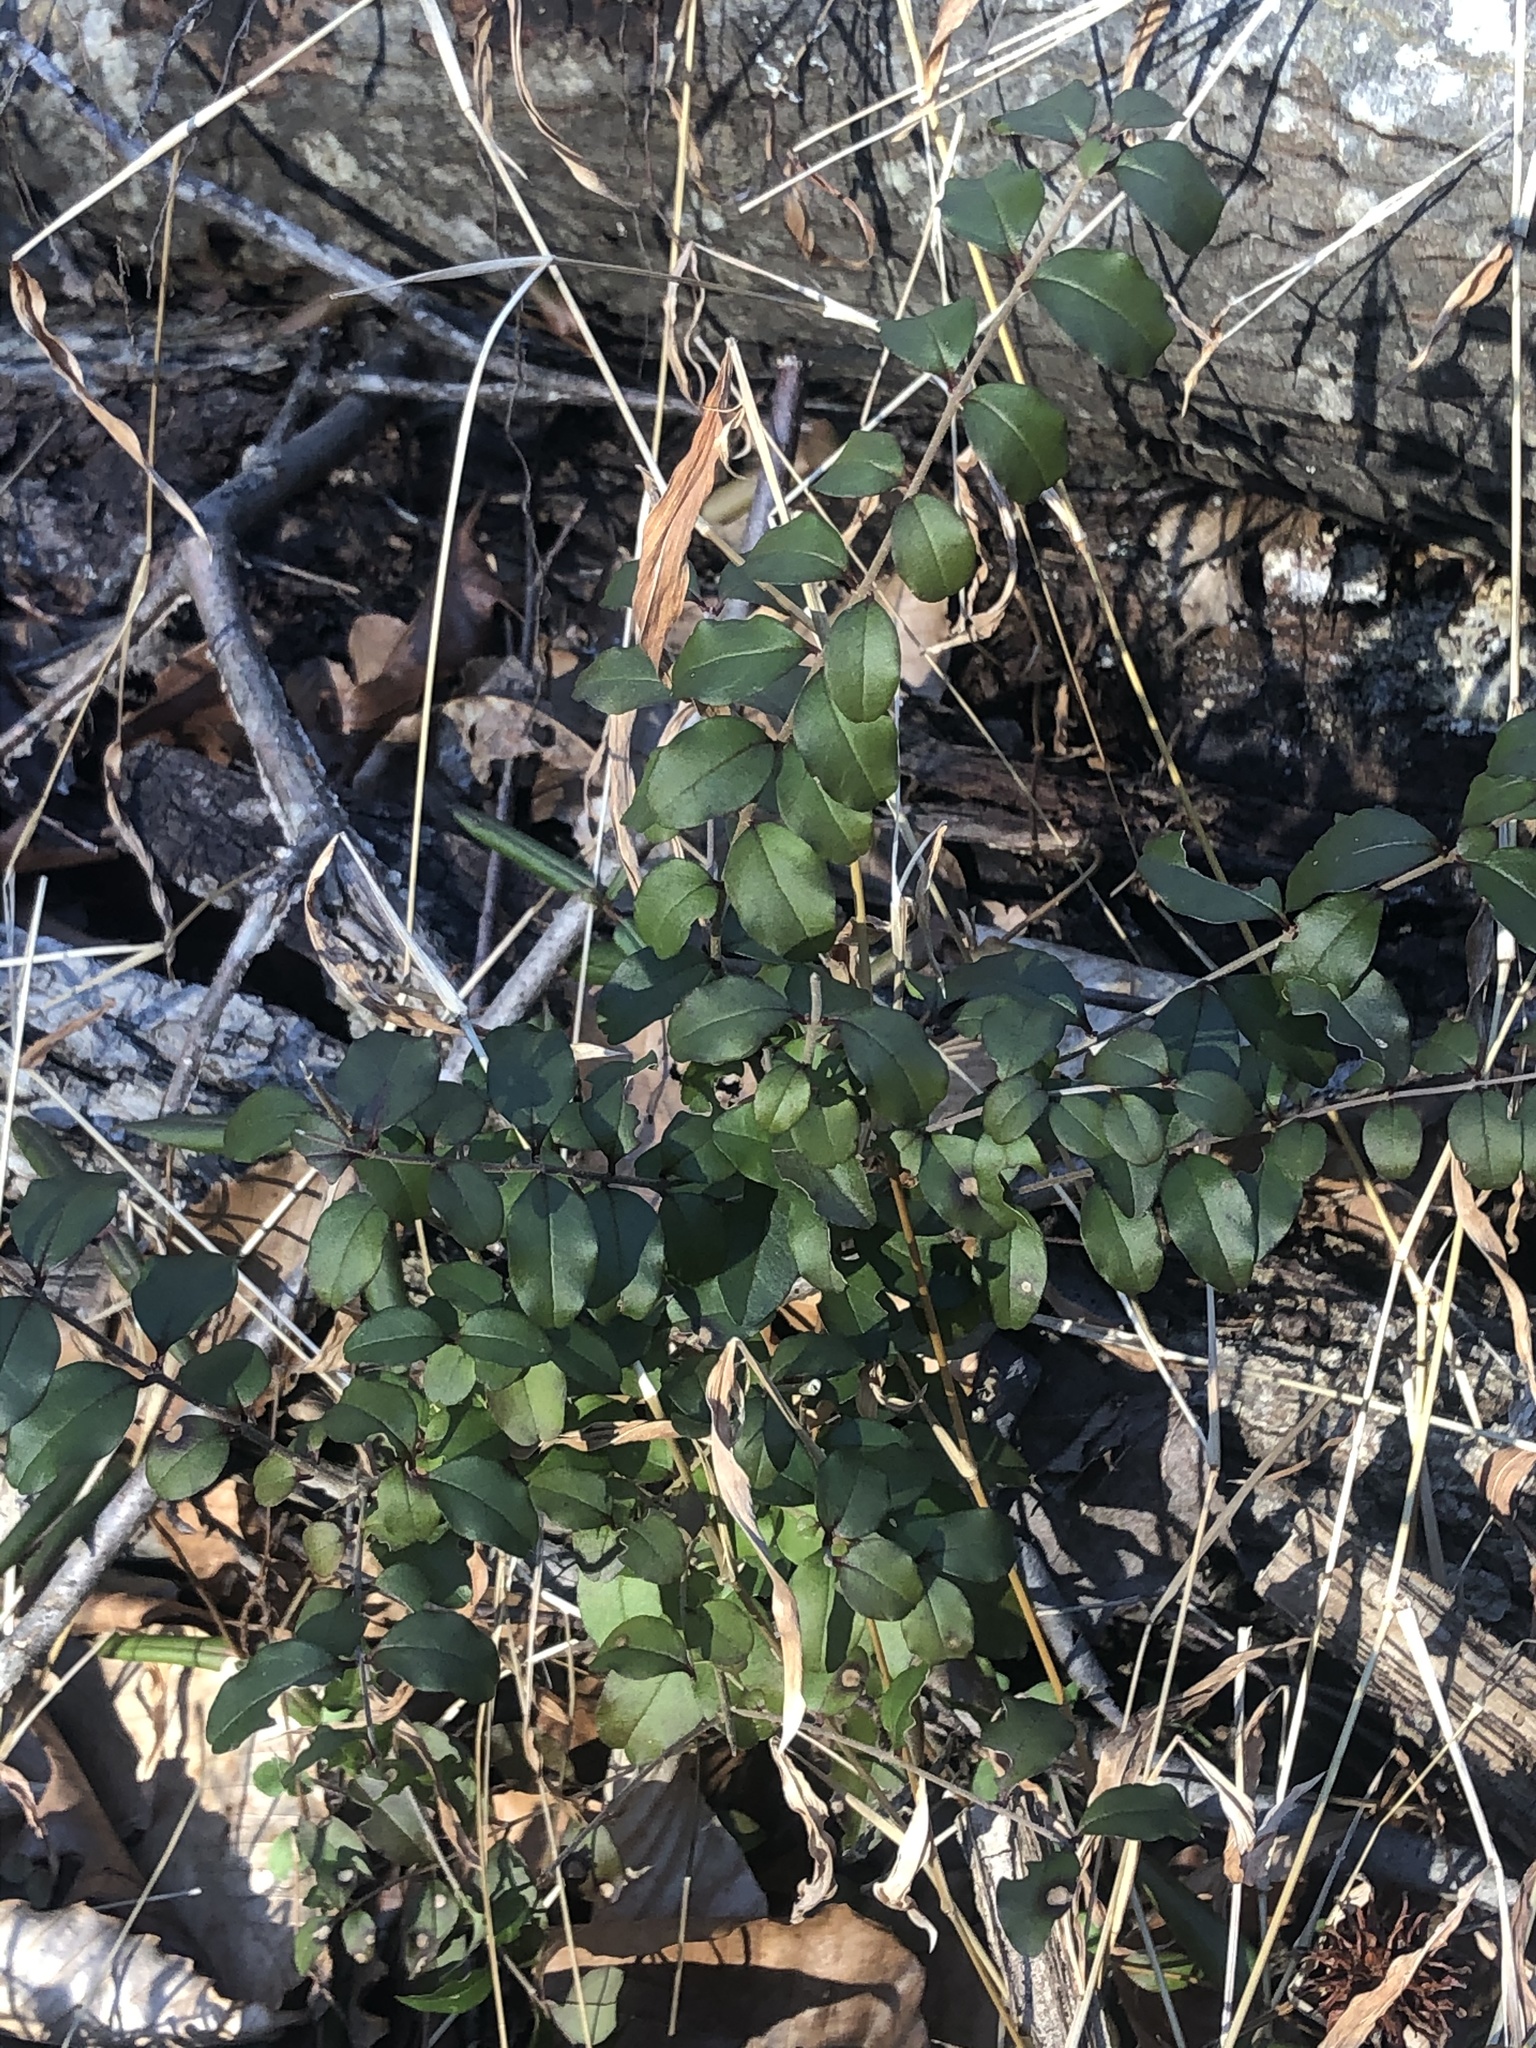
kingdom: Plantae
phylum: Tracheophyta
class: Magnoliopsida
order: Lamiales
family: Oleaceae
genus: Ligustrum
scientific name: Ligustrum sinense
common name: Chinese privet
